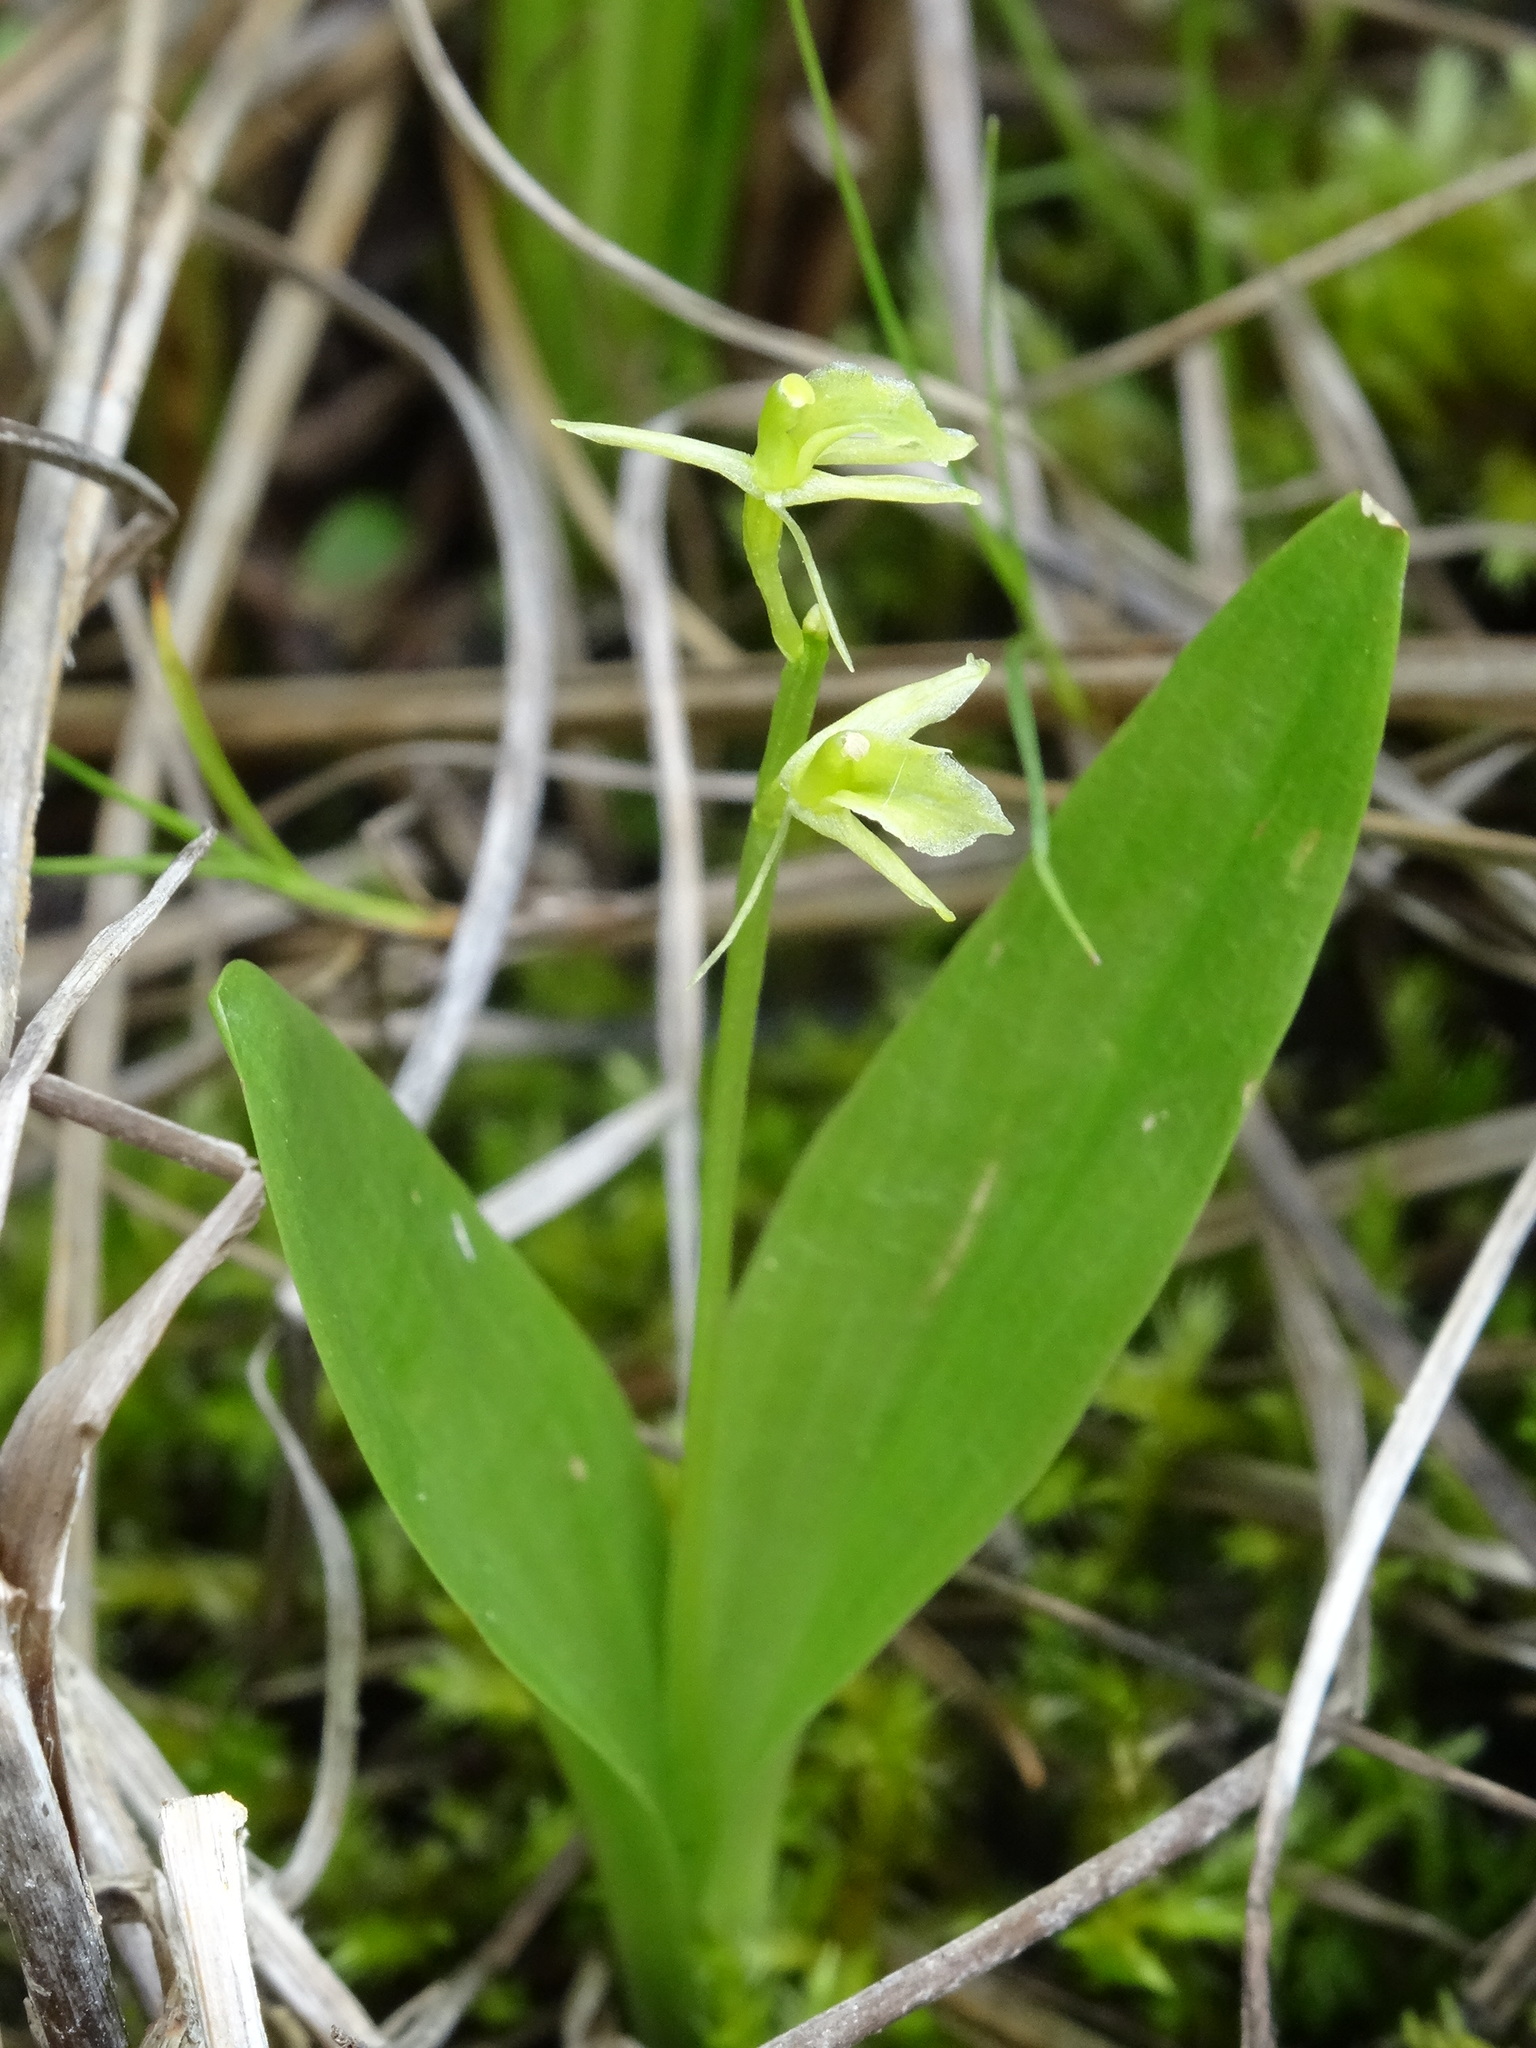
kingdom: Animalia
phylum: Arthropoda
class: Insecta
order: Coleoptera
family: Curculionidae
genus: Liparis
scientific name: Liparis loeselii
